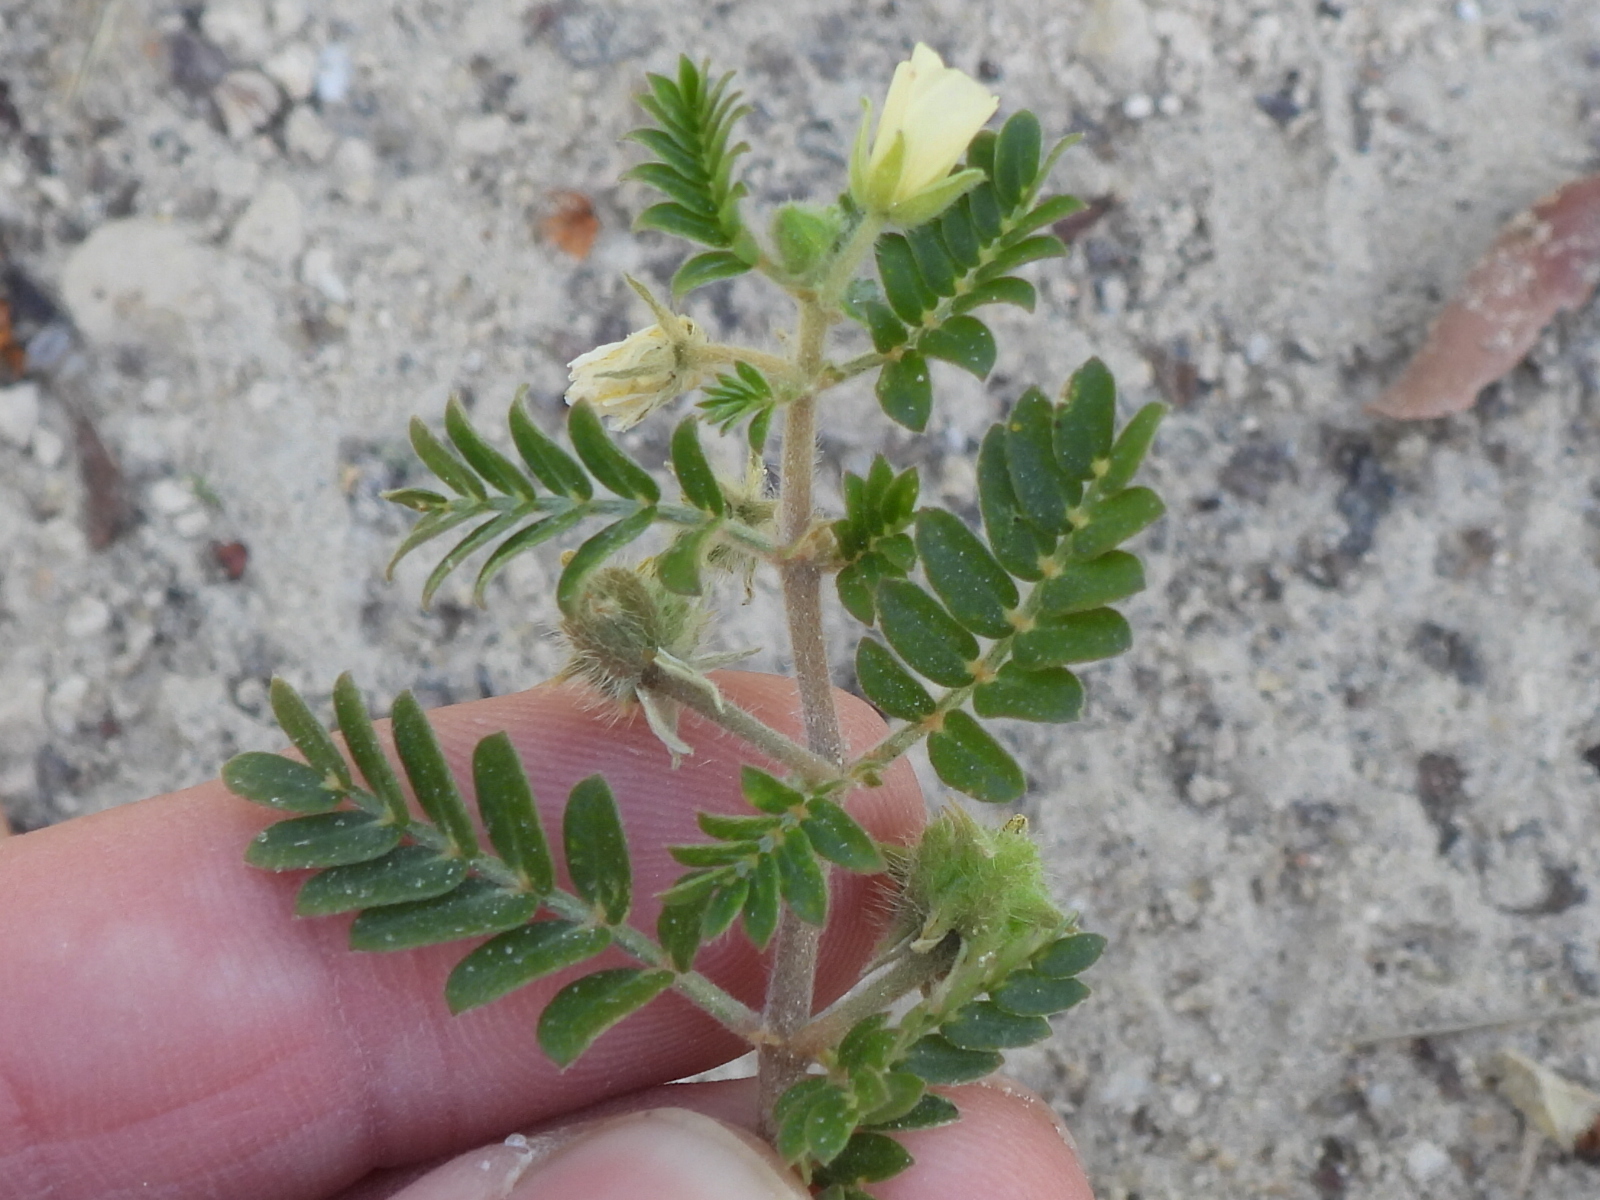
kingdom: Plantae
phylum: Tracheophyta
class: Magnoliopsida
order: Zygophyllales
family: Zygophyllaceae
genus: Tribulus
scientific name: Tribulus terrestris
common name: Puncturevine
